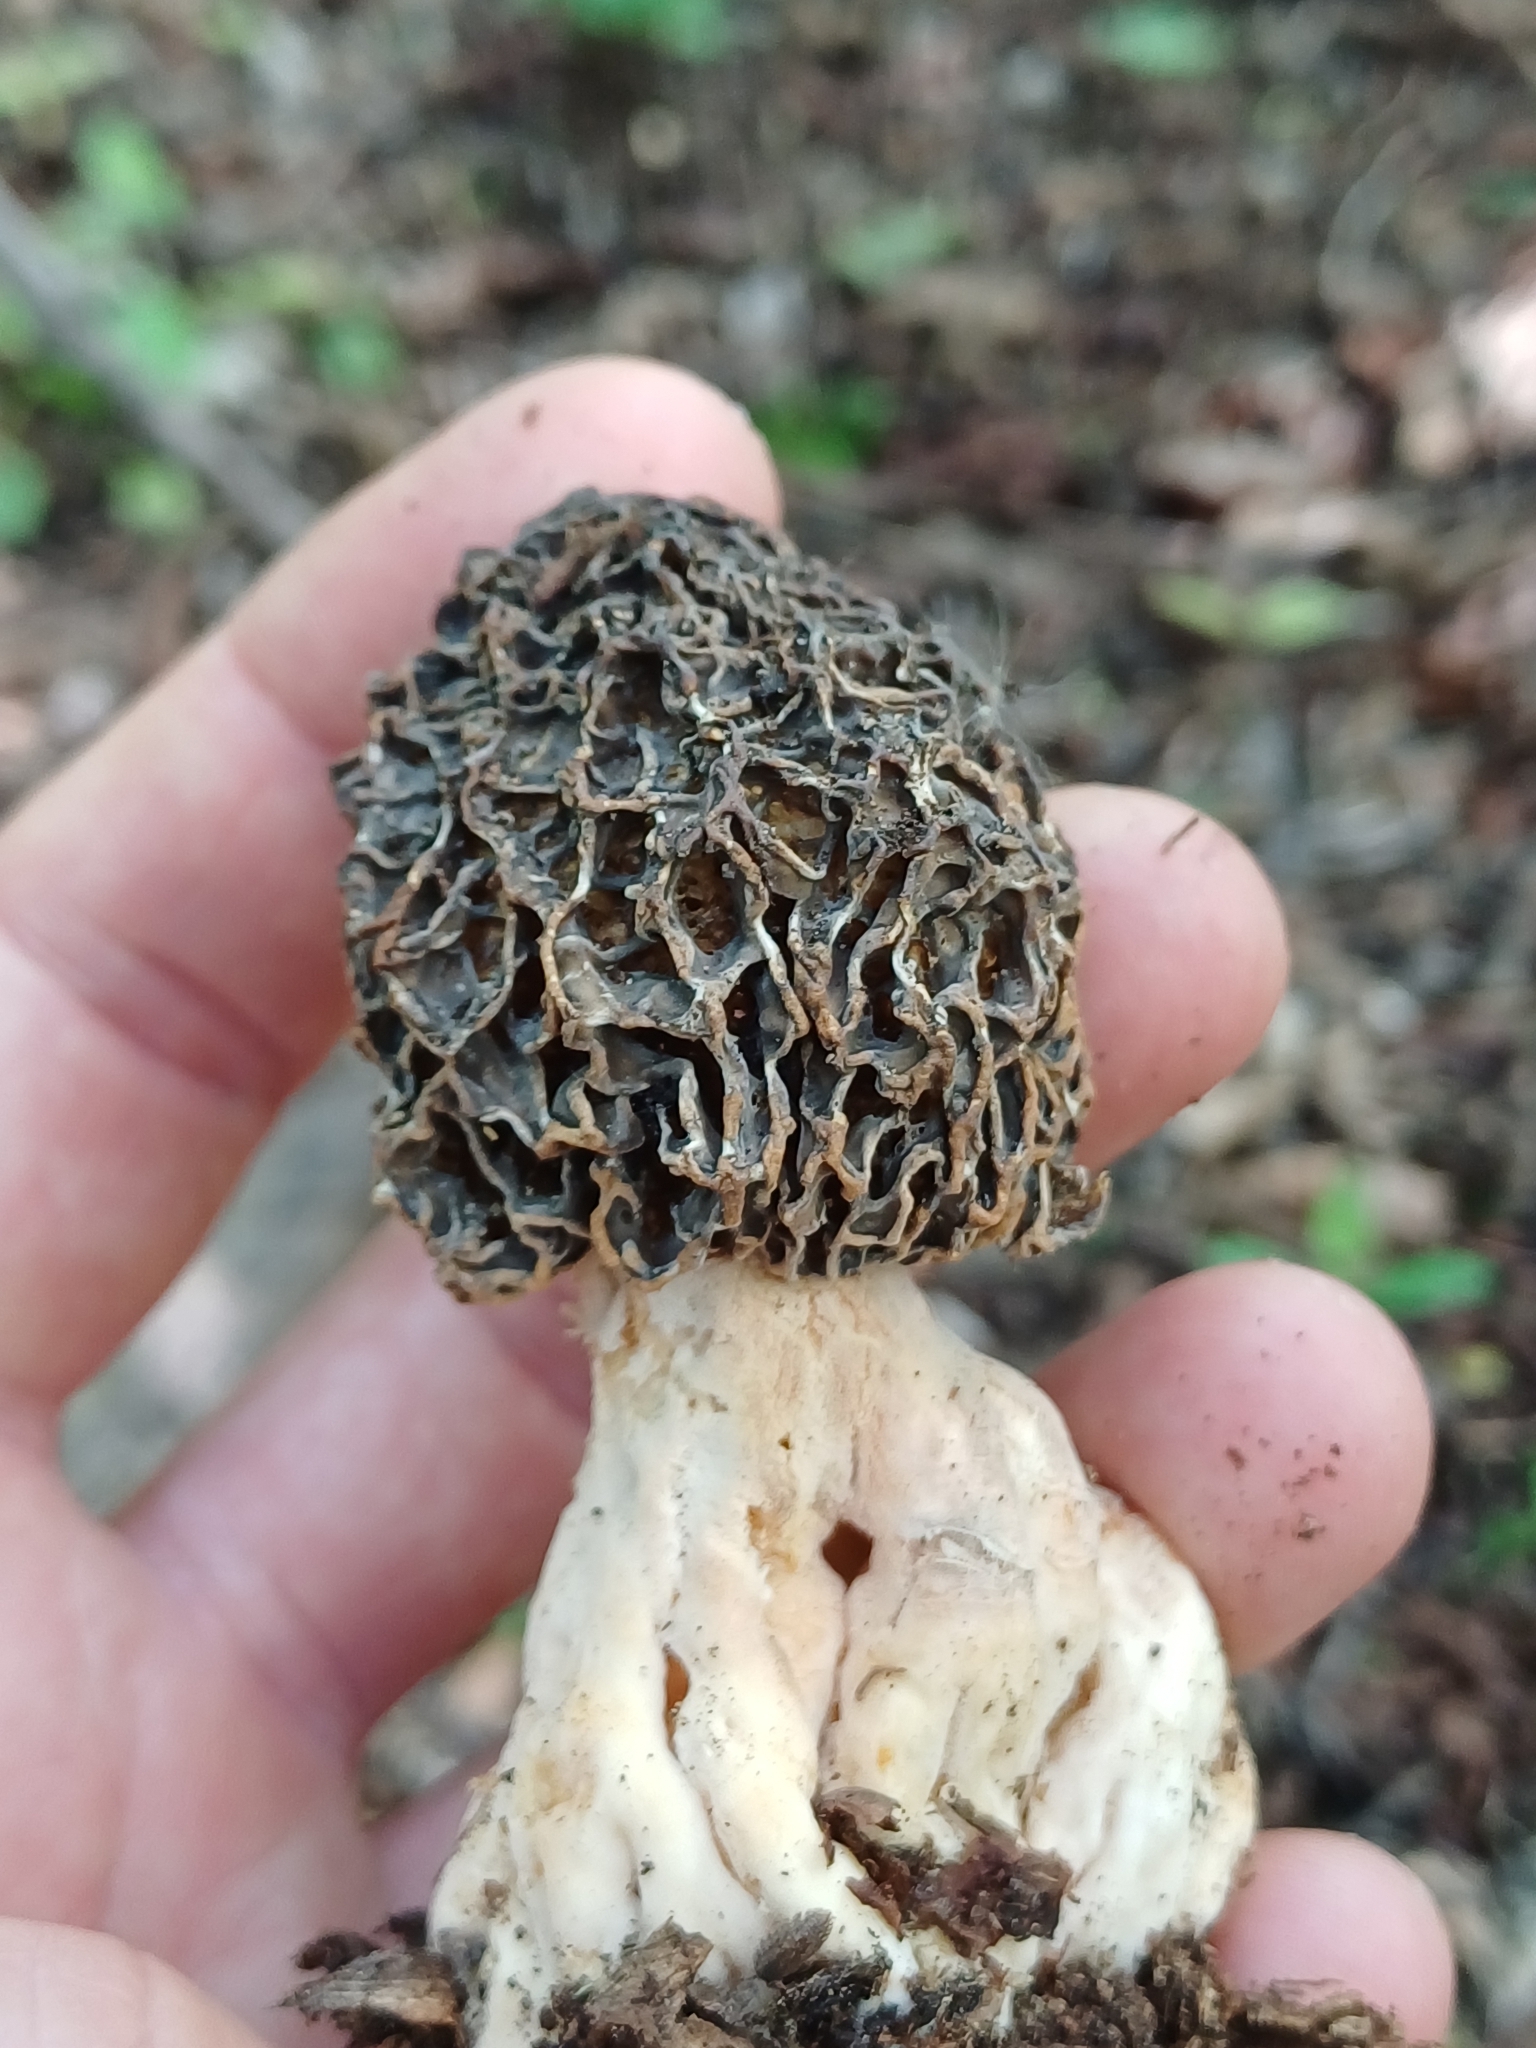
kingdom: Fungi
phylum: Ascomycota
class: Pezizomycetes
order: Pezizales
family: Morchellaceae
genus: Morchella
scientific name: Morchella vulgaris
